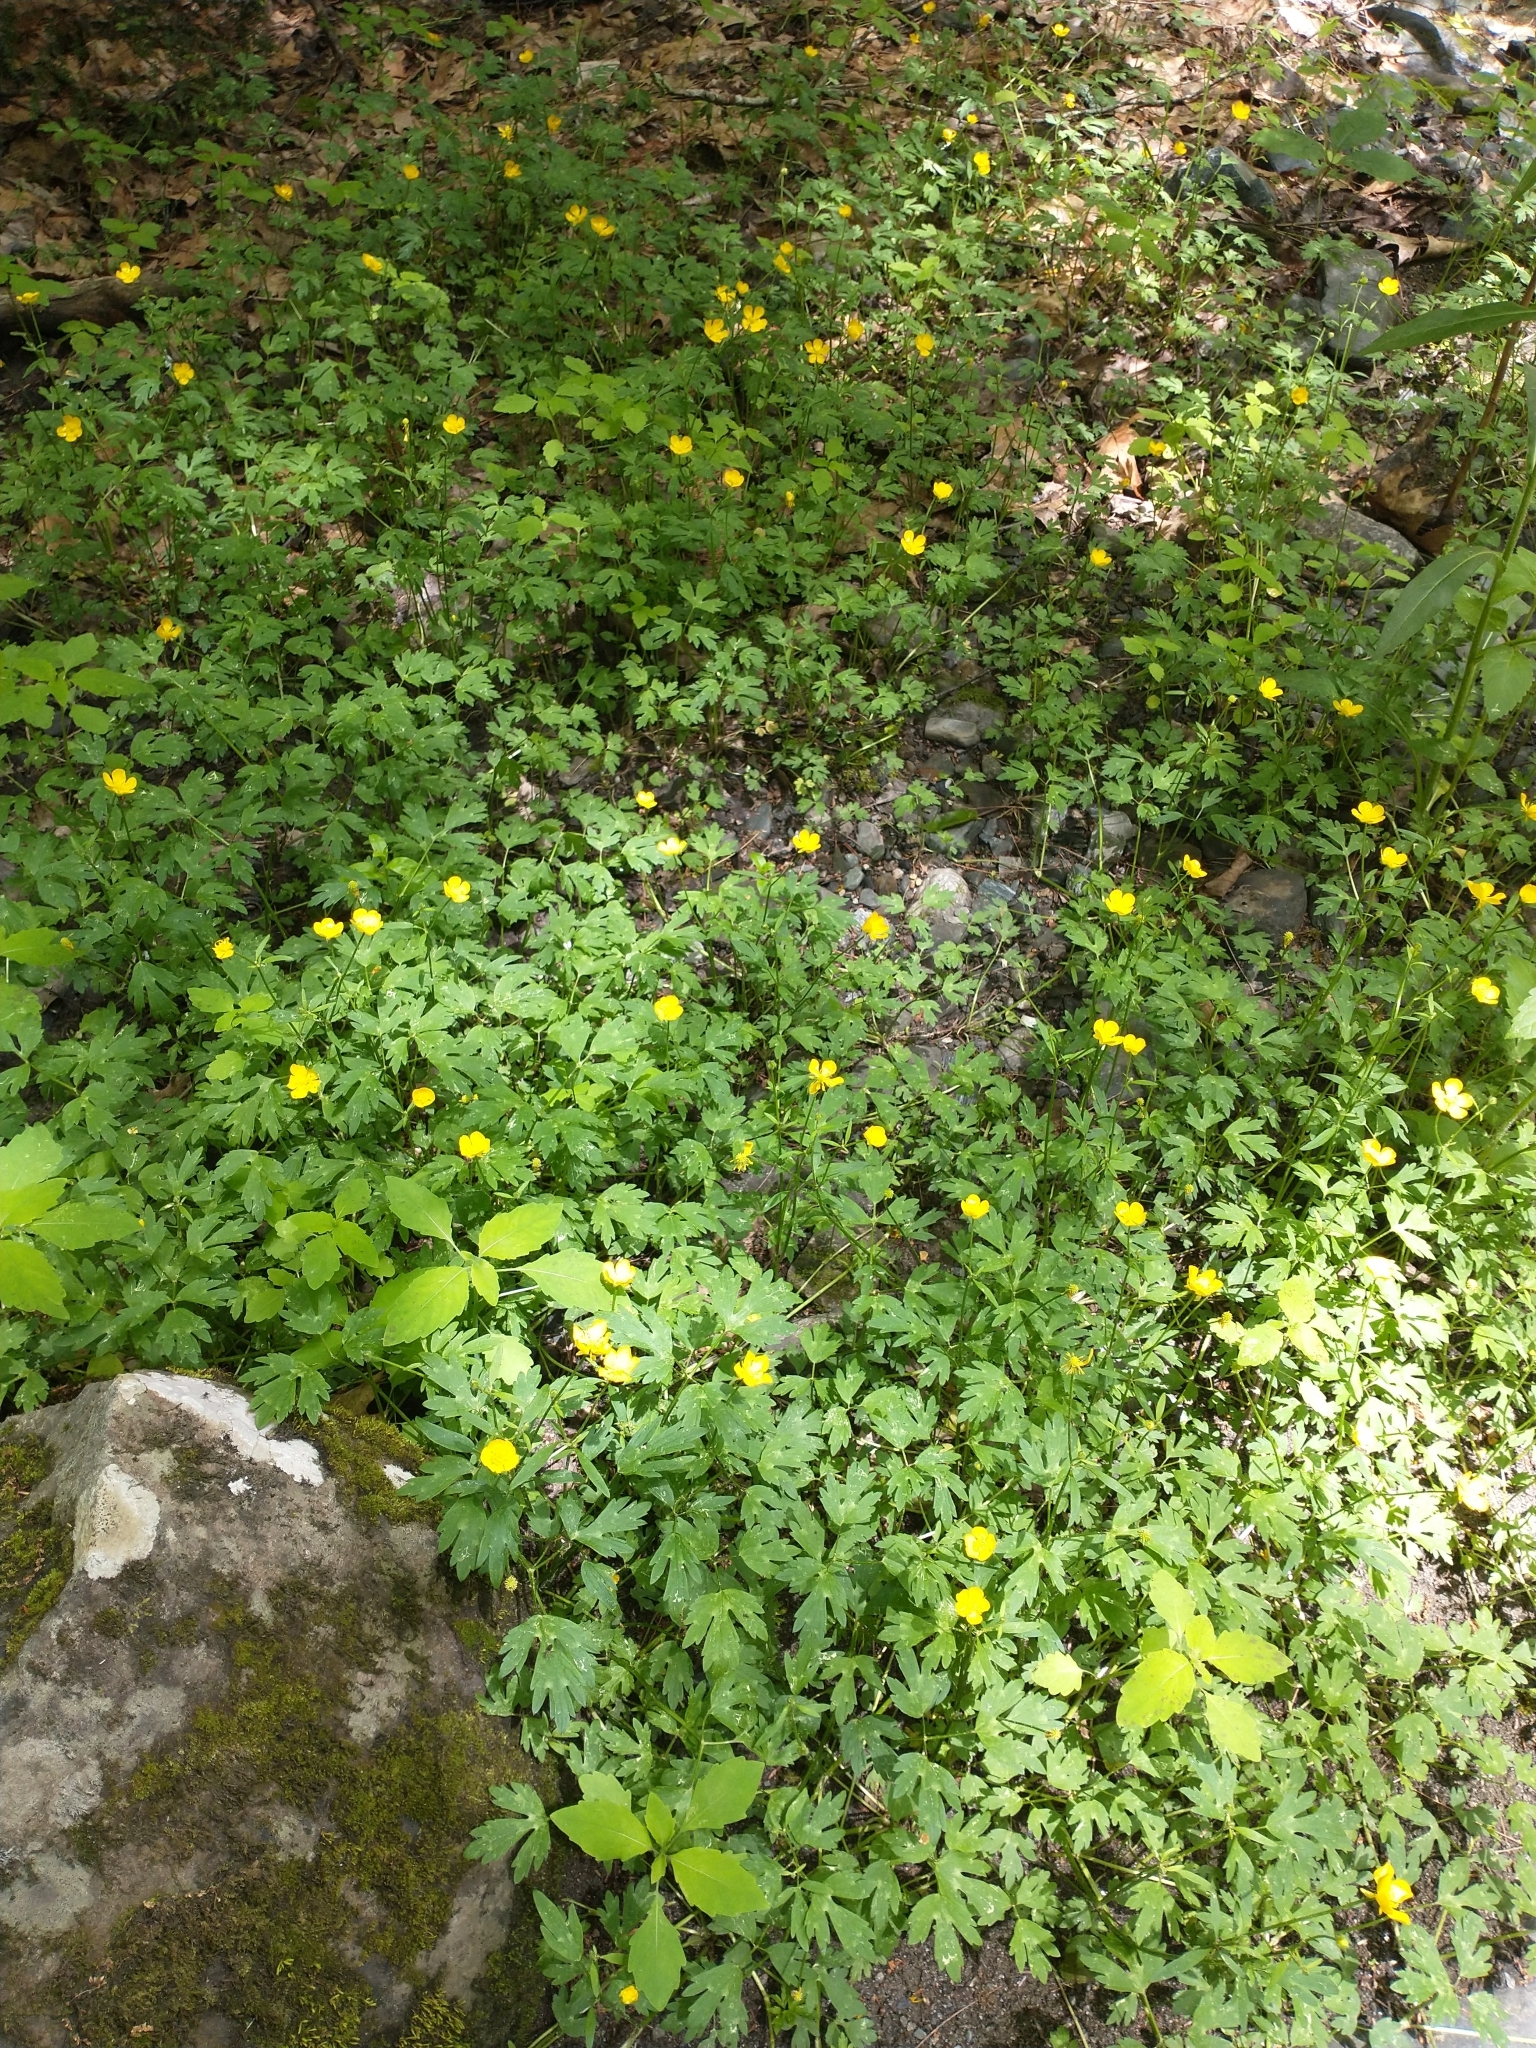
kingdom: Plantae
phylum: Tracheophyta
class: Magnoliopsida
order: Ranunculales
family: Ranunculaceae
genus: Ranunculus
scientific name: Ranunculus repens
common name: Creeping buttercup
